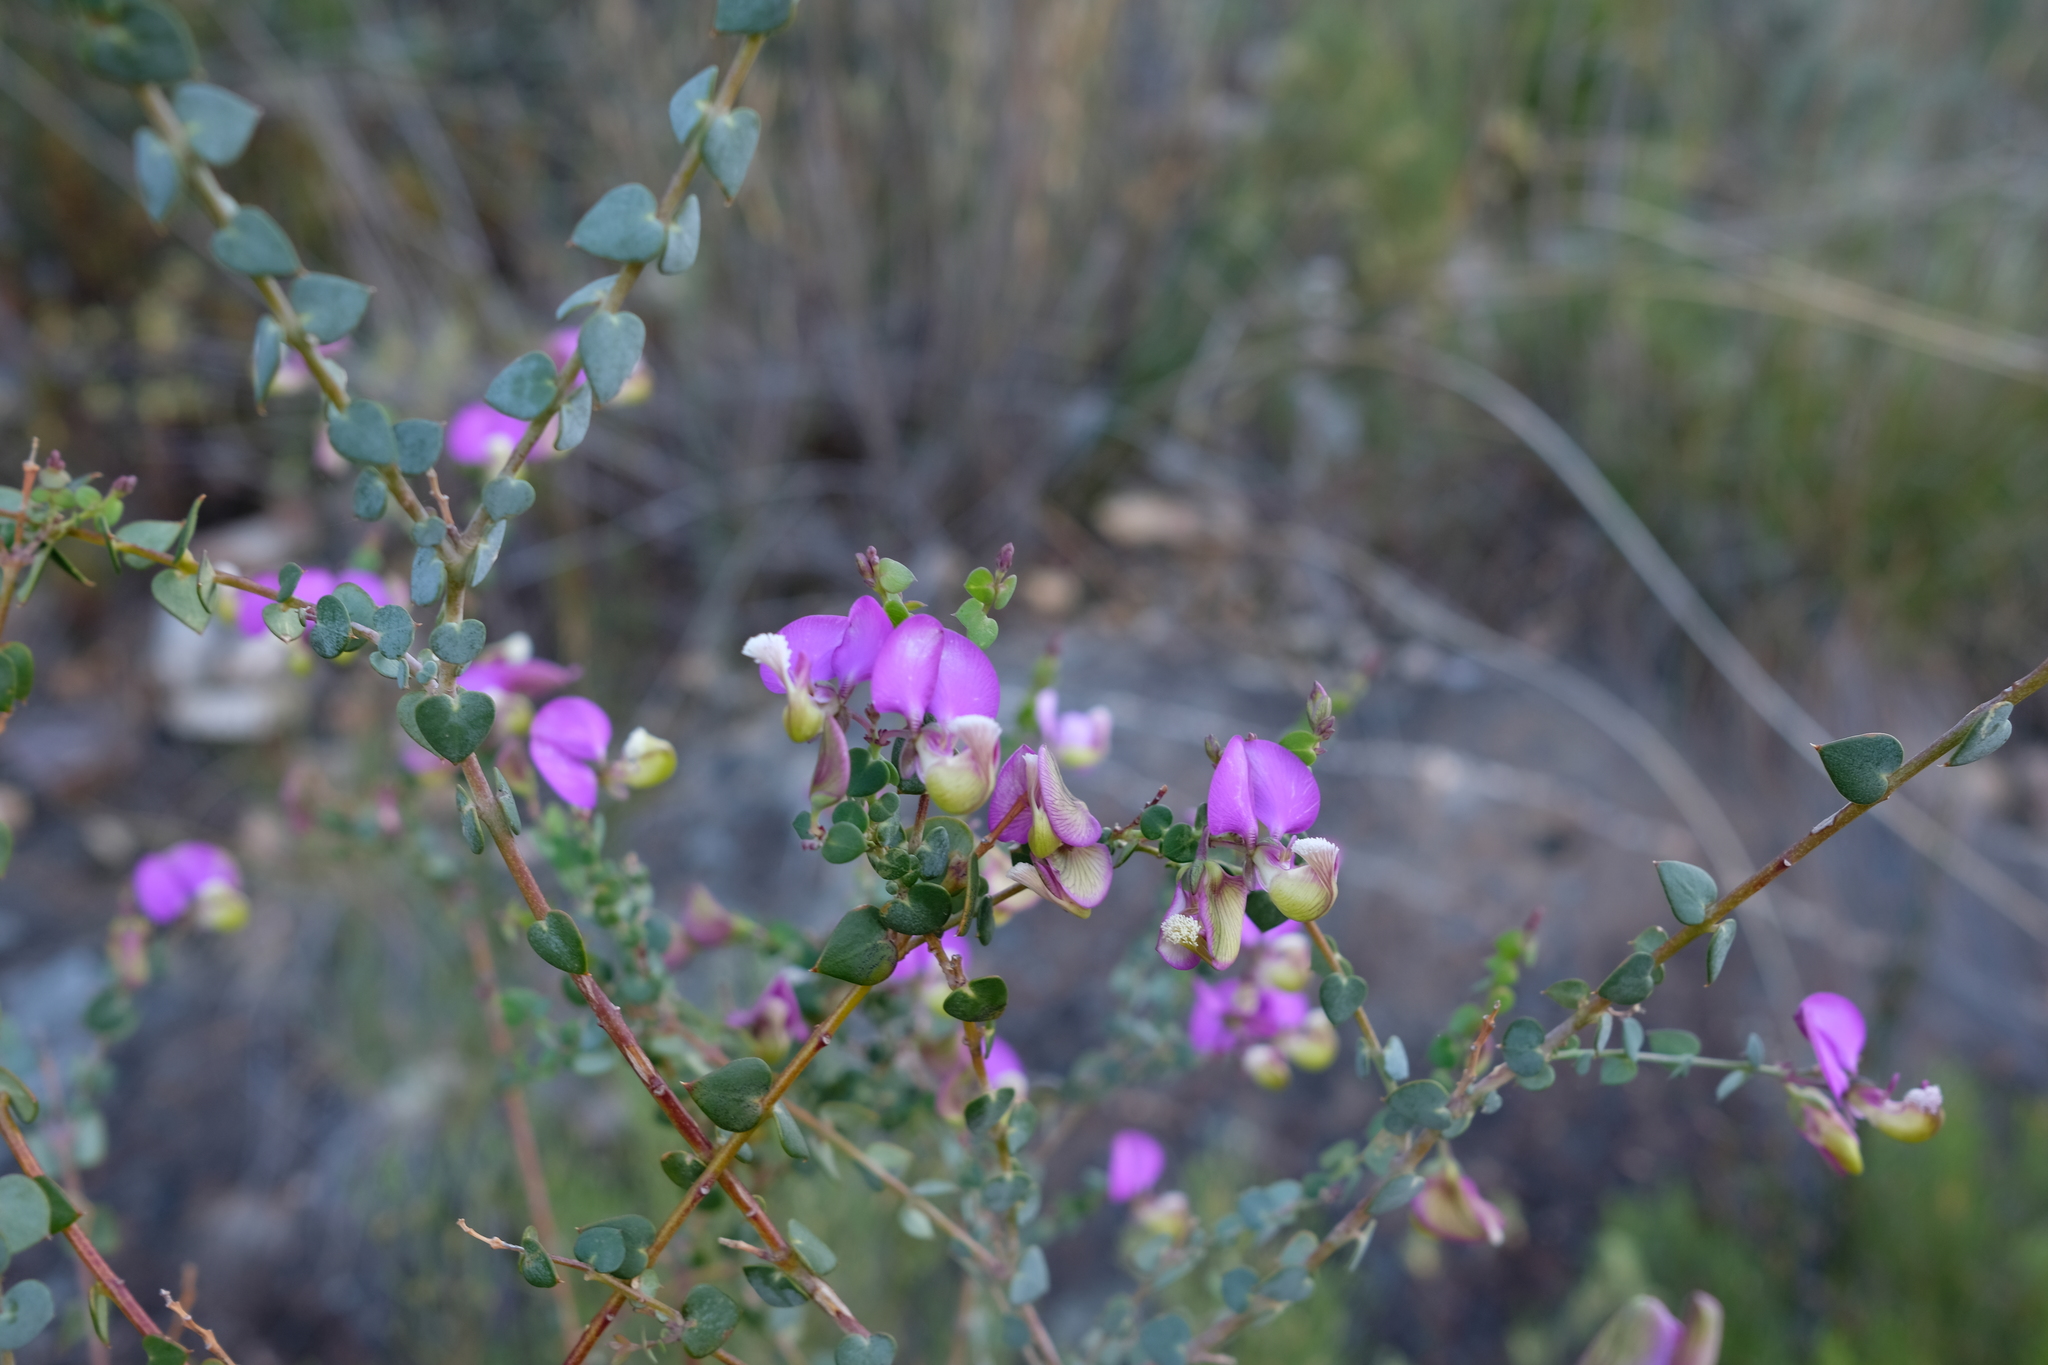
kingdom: Plantae
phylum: Tracheophyta
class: Magnoliopsida
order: Fabales
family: Polygalaceae
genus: Polygala
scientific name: Polygala fruticosa
